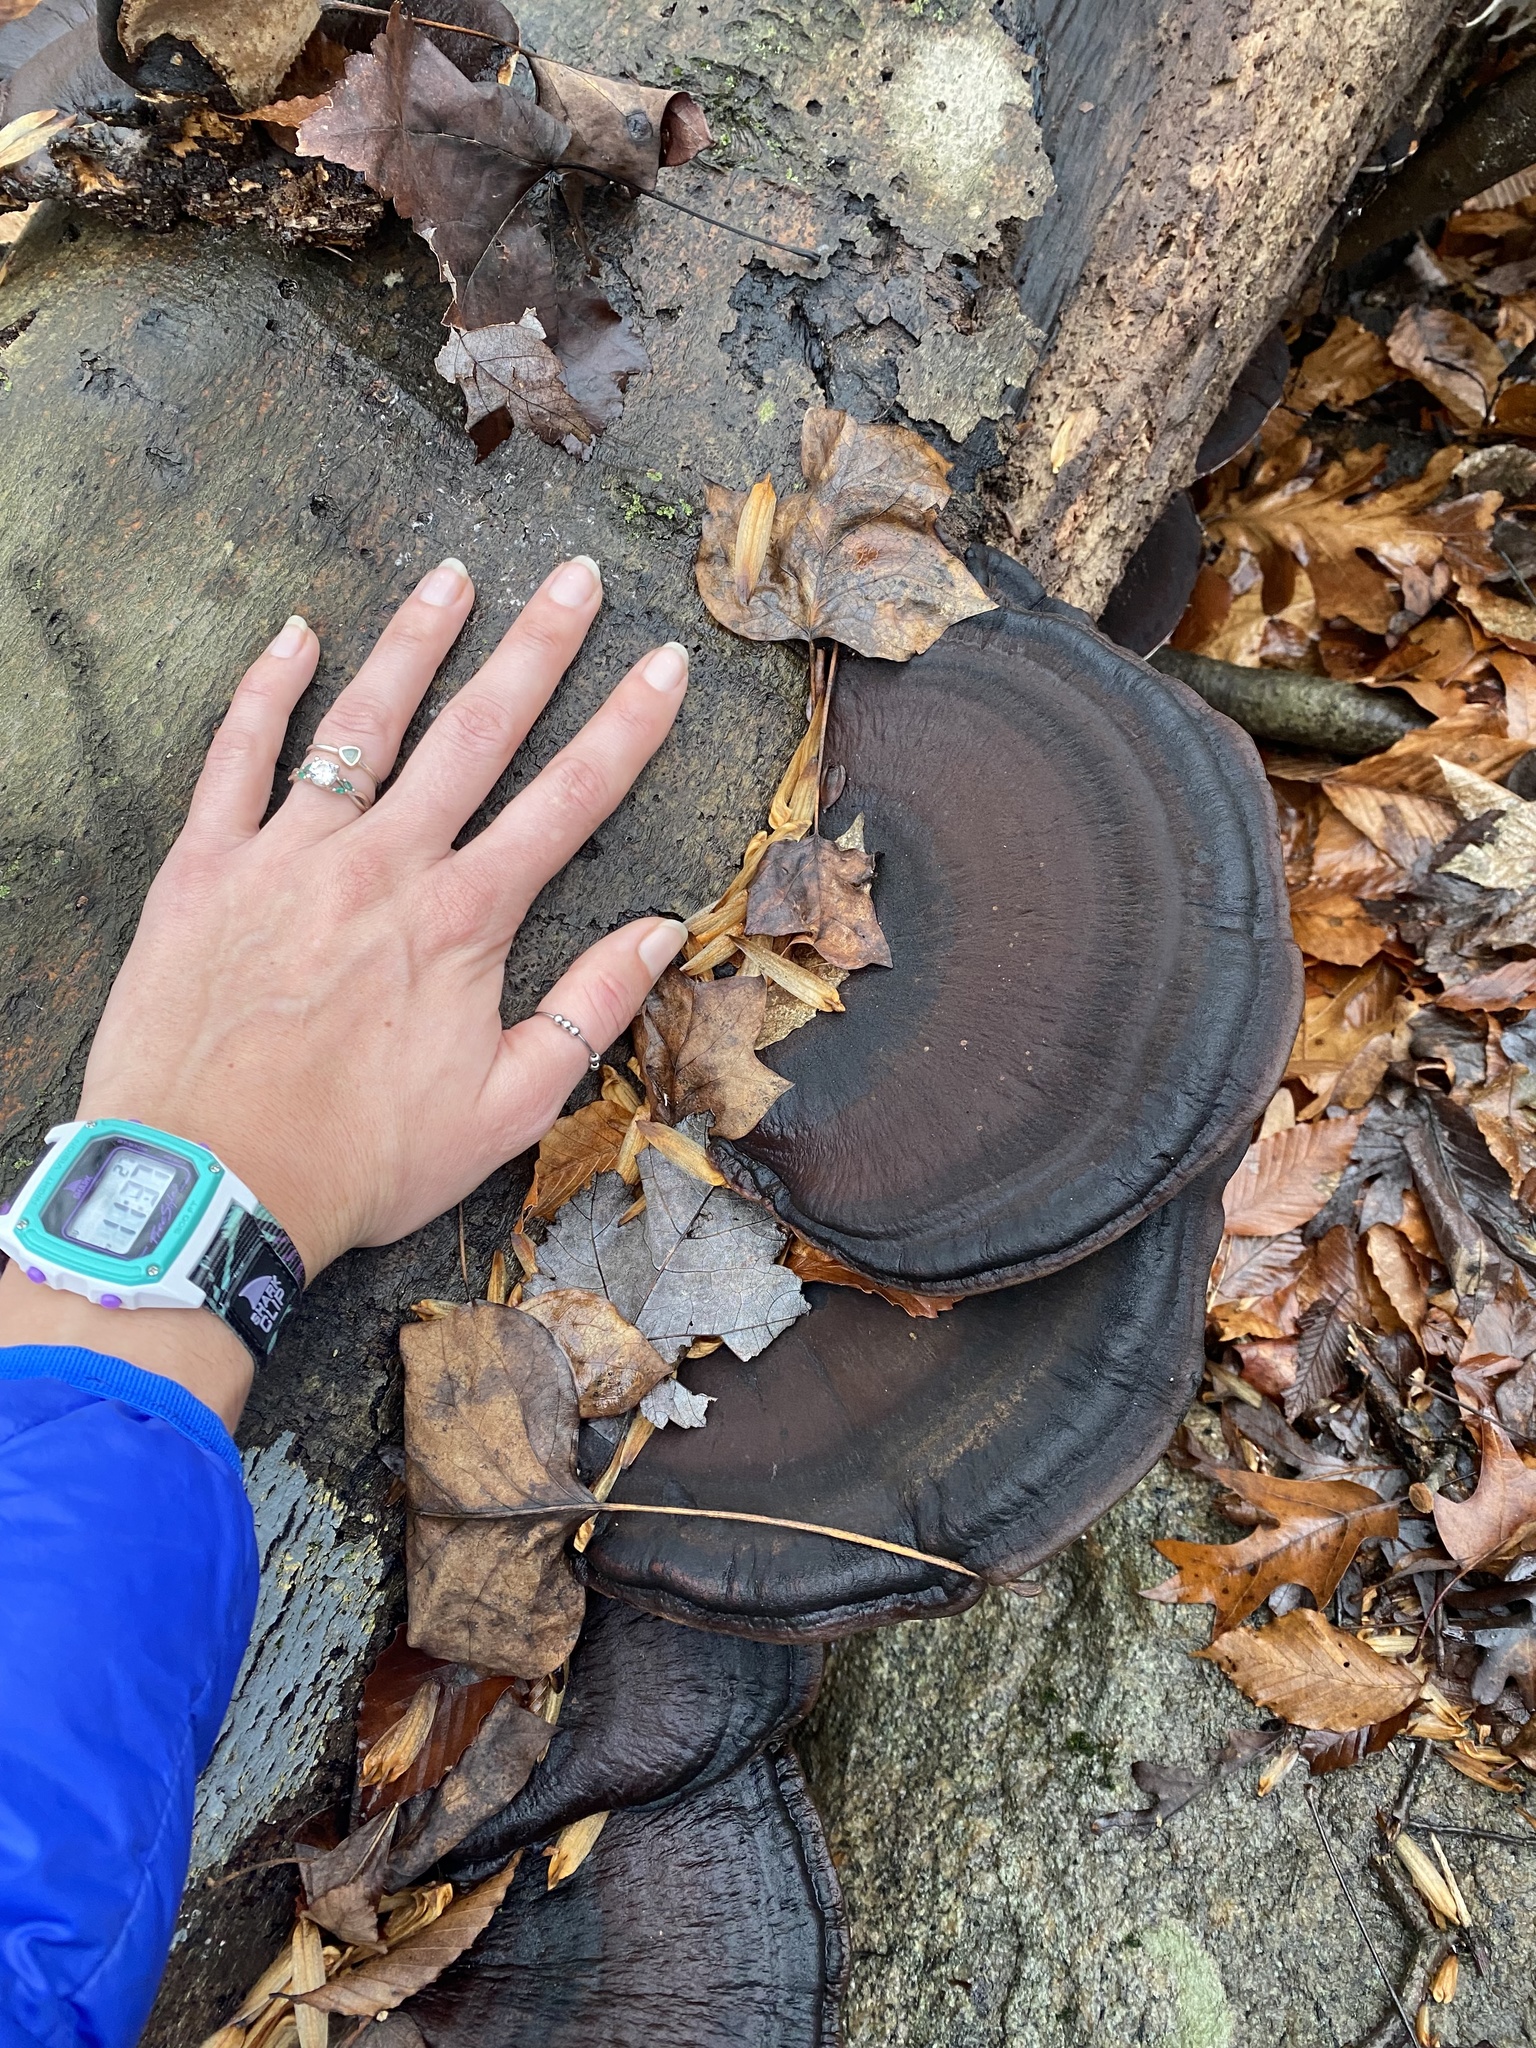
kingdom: Fungi
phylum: Basidiomycota
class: Agaricomycetes
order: Polyporales
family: Ischnodermataceae
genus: Ischnoderma
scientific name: Ischnoderma resinosum
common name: Resinous polypore
